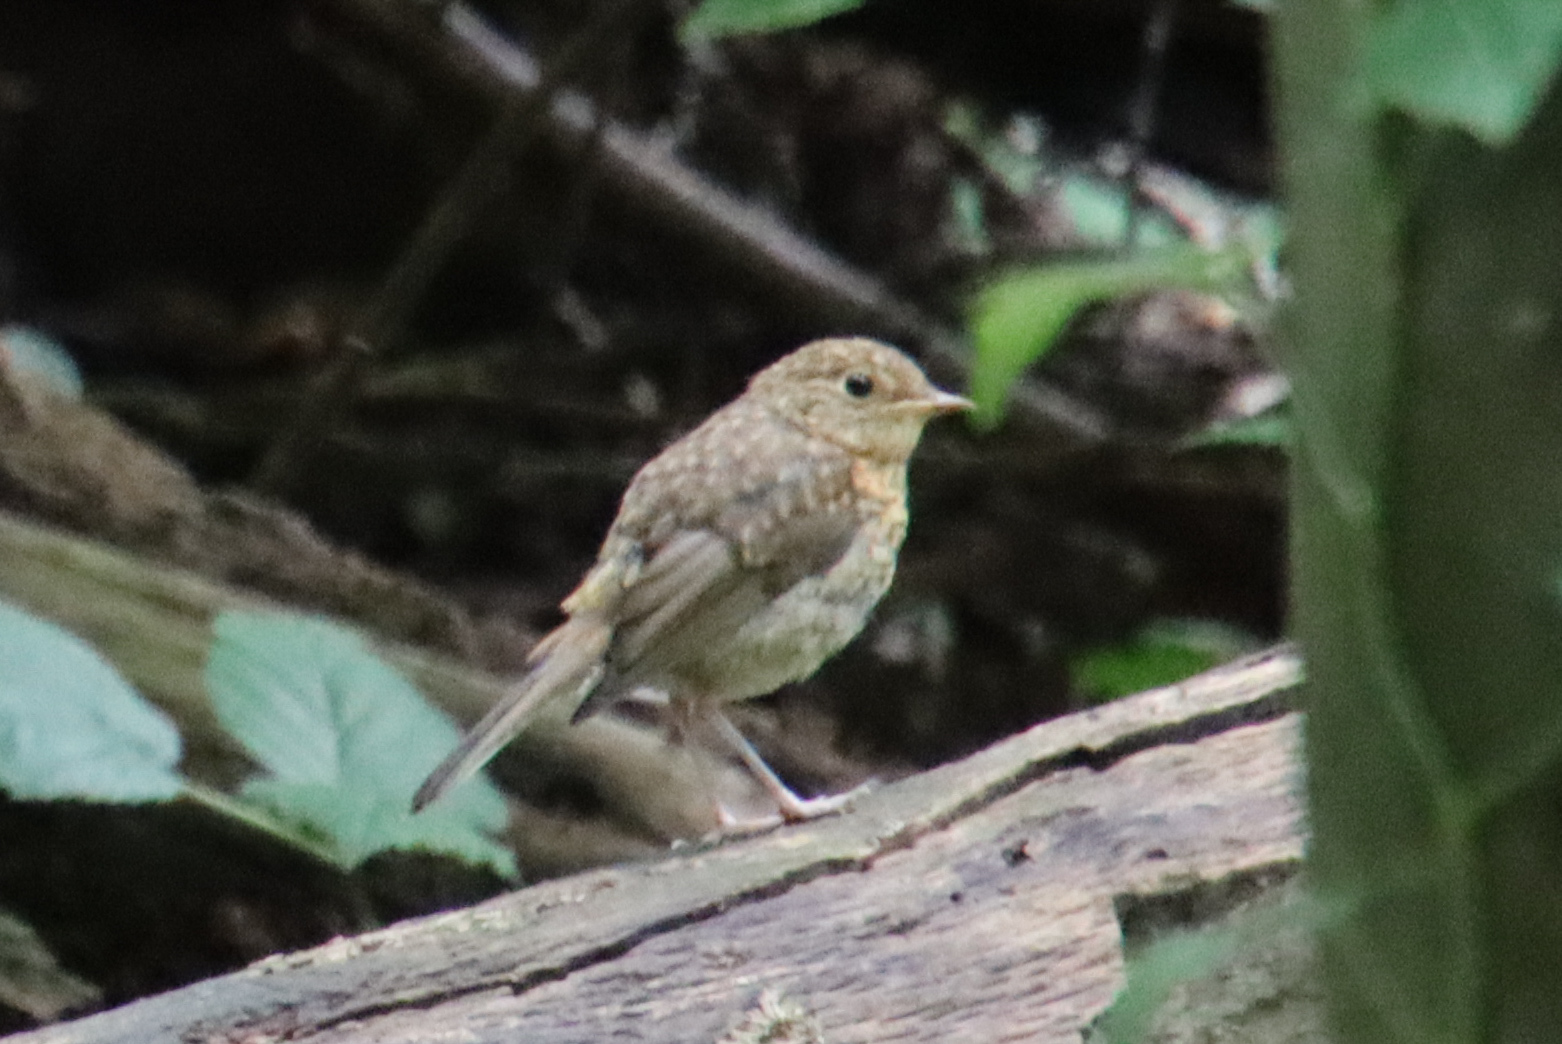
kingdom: Animalia
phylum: Chordata
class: Aves
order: Passeriformes
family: Muscicapidae
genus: Erithacus
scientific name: Erithacus rubecula
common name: European robin
